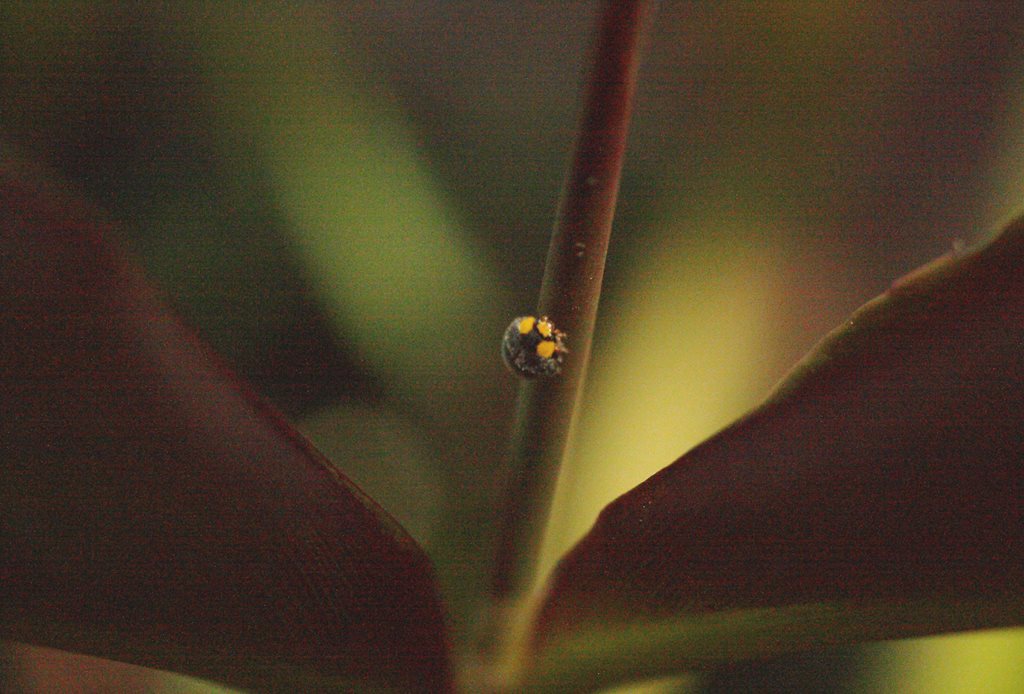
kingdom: Animalia
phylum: Arthropoda
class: Insecta
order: Coleoptera
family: Coccinellidae
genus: Scymnodes
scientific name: Scymnodes lividigaster
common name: Yellowshouldered lady beetle
